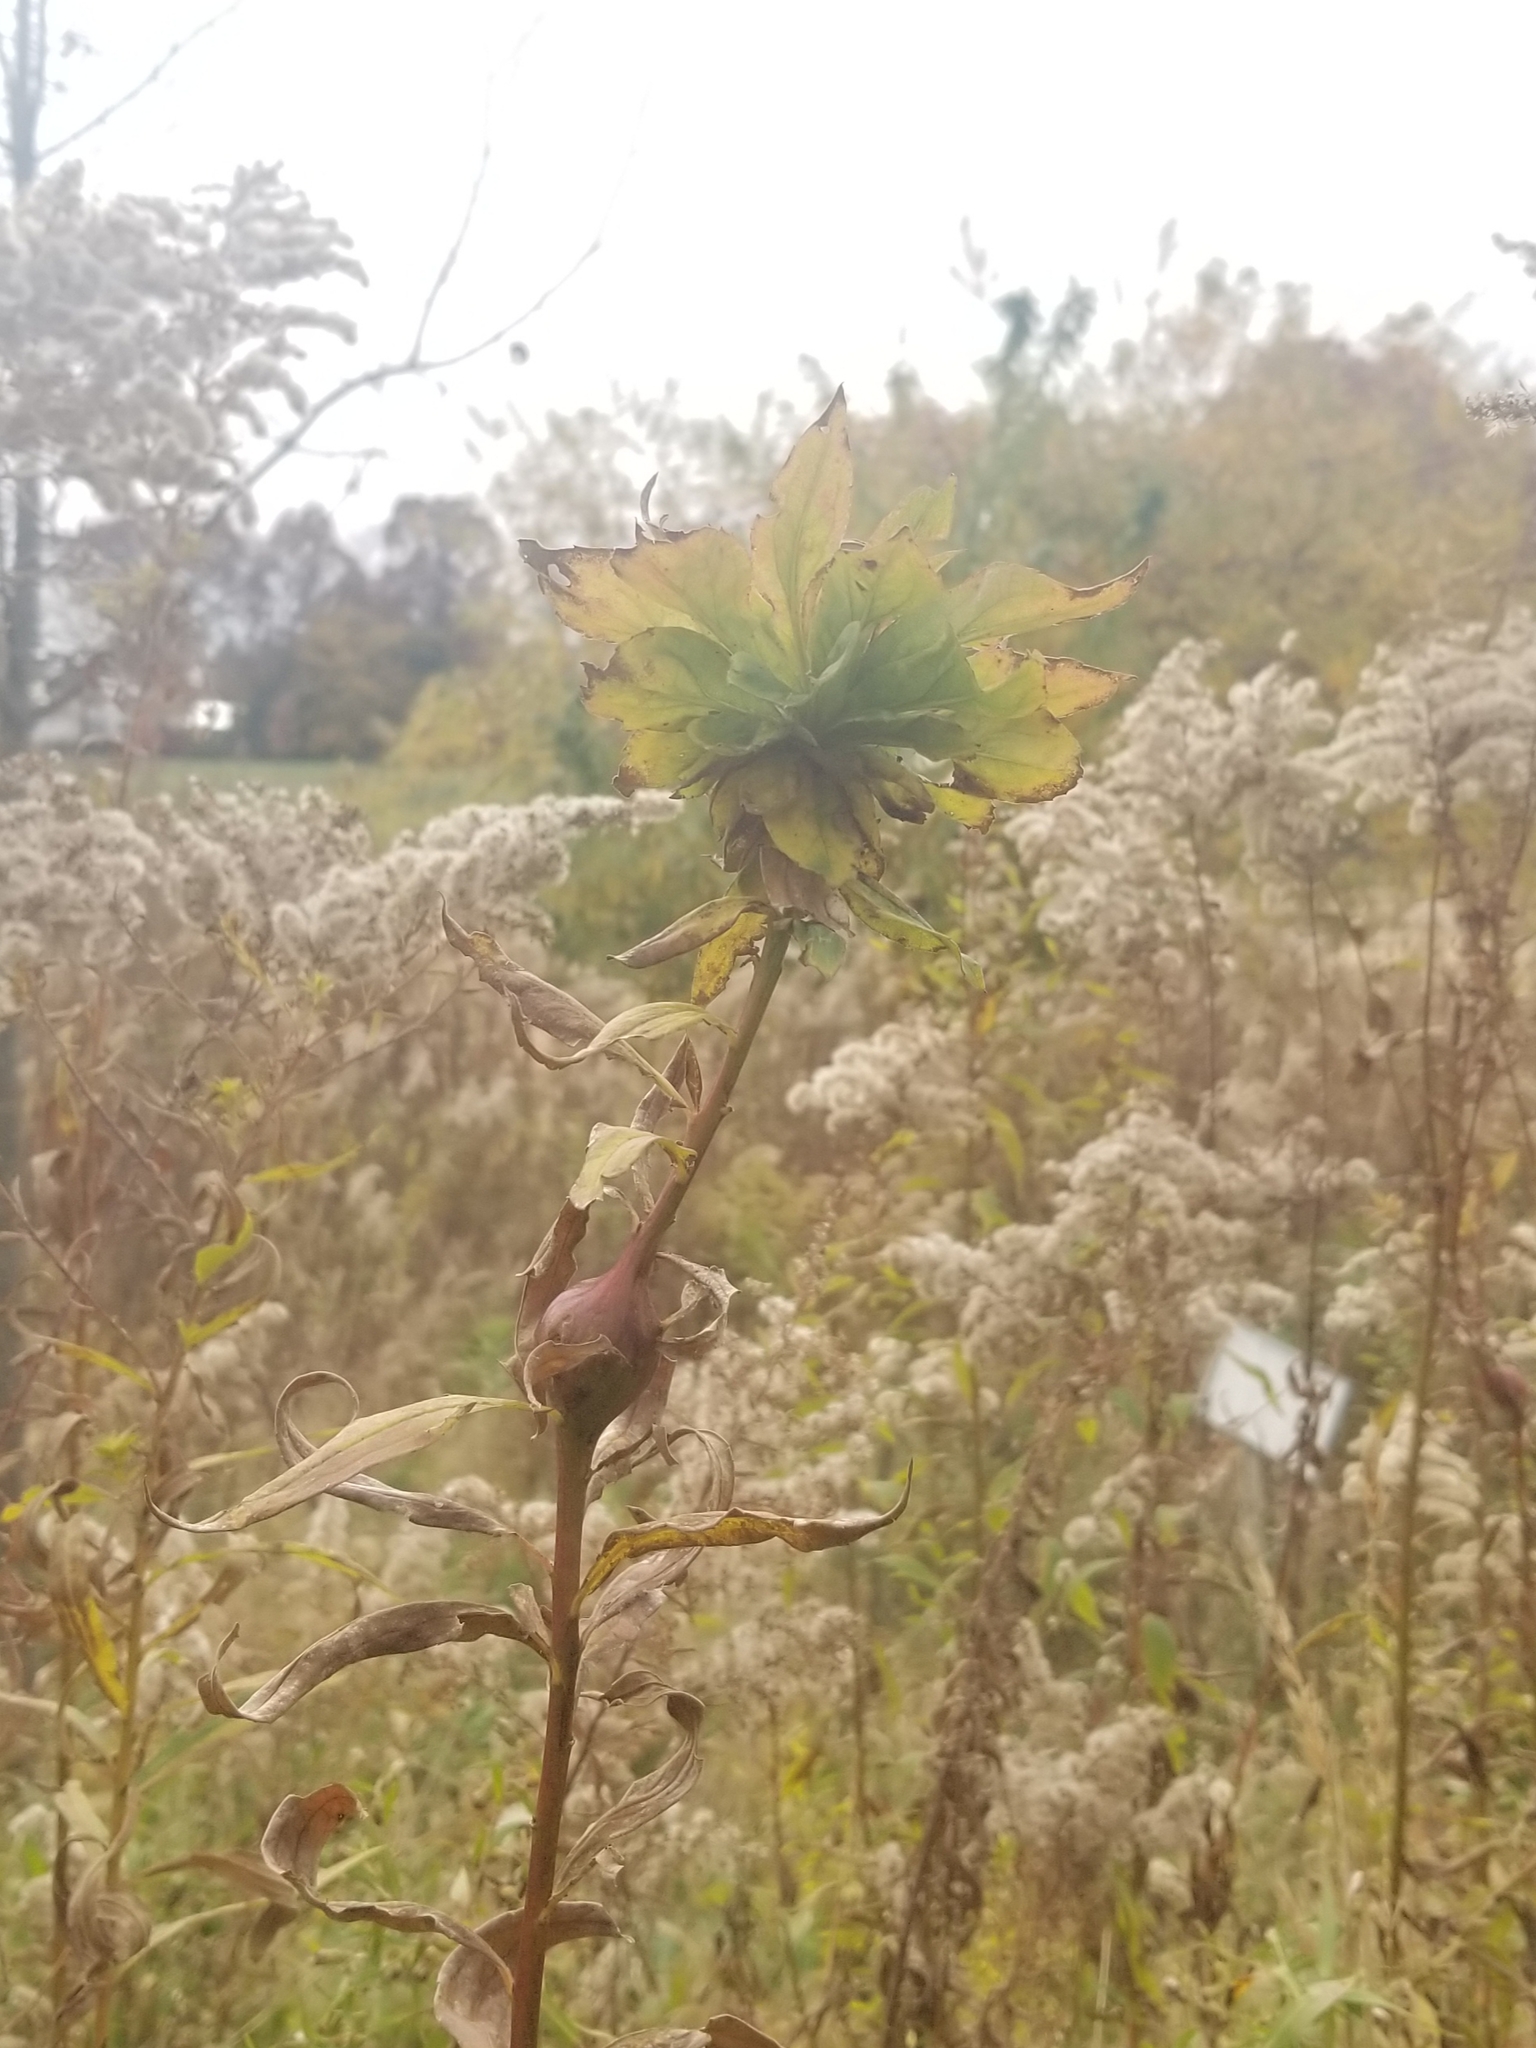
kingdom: Animalia
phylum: Arthropoda
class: Insecta
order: Diptera
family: Tephritidae
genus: Eurosta
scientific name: Eurosta solidaginis
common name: Goldenrod gall fly
